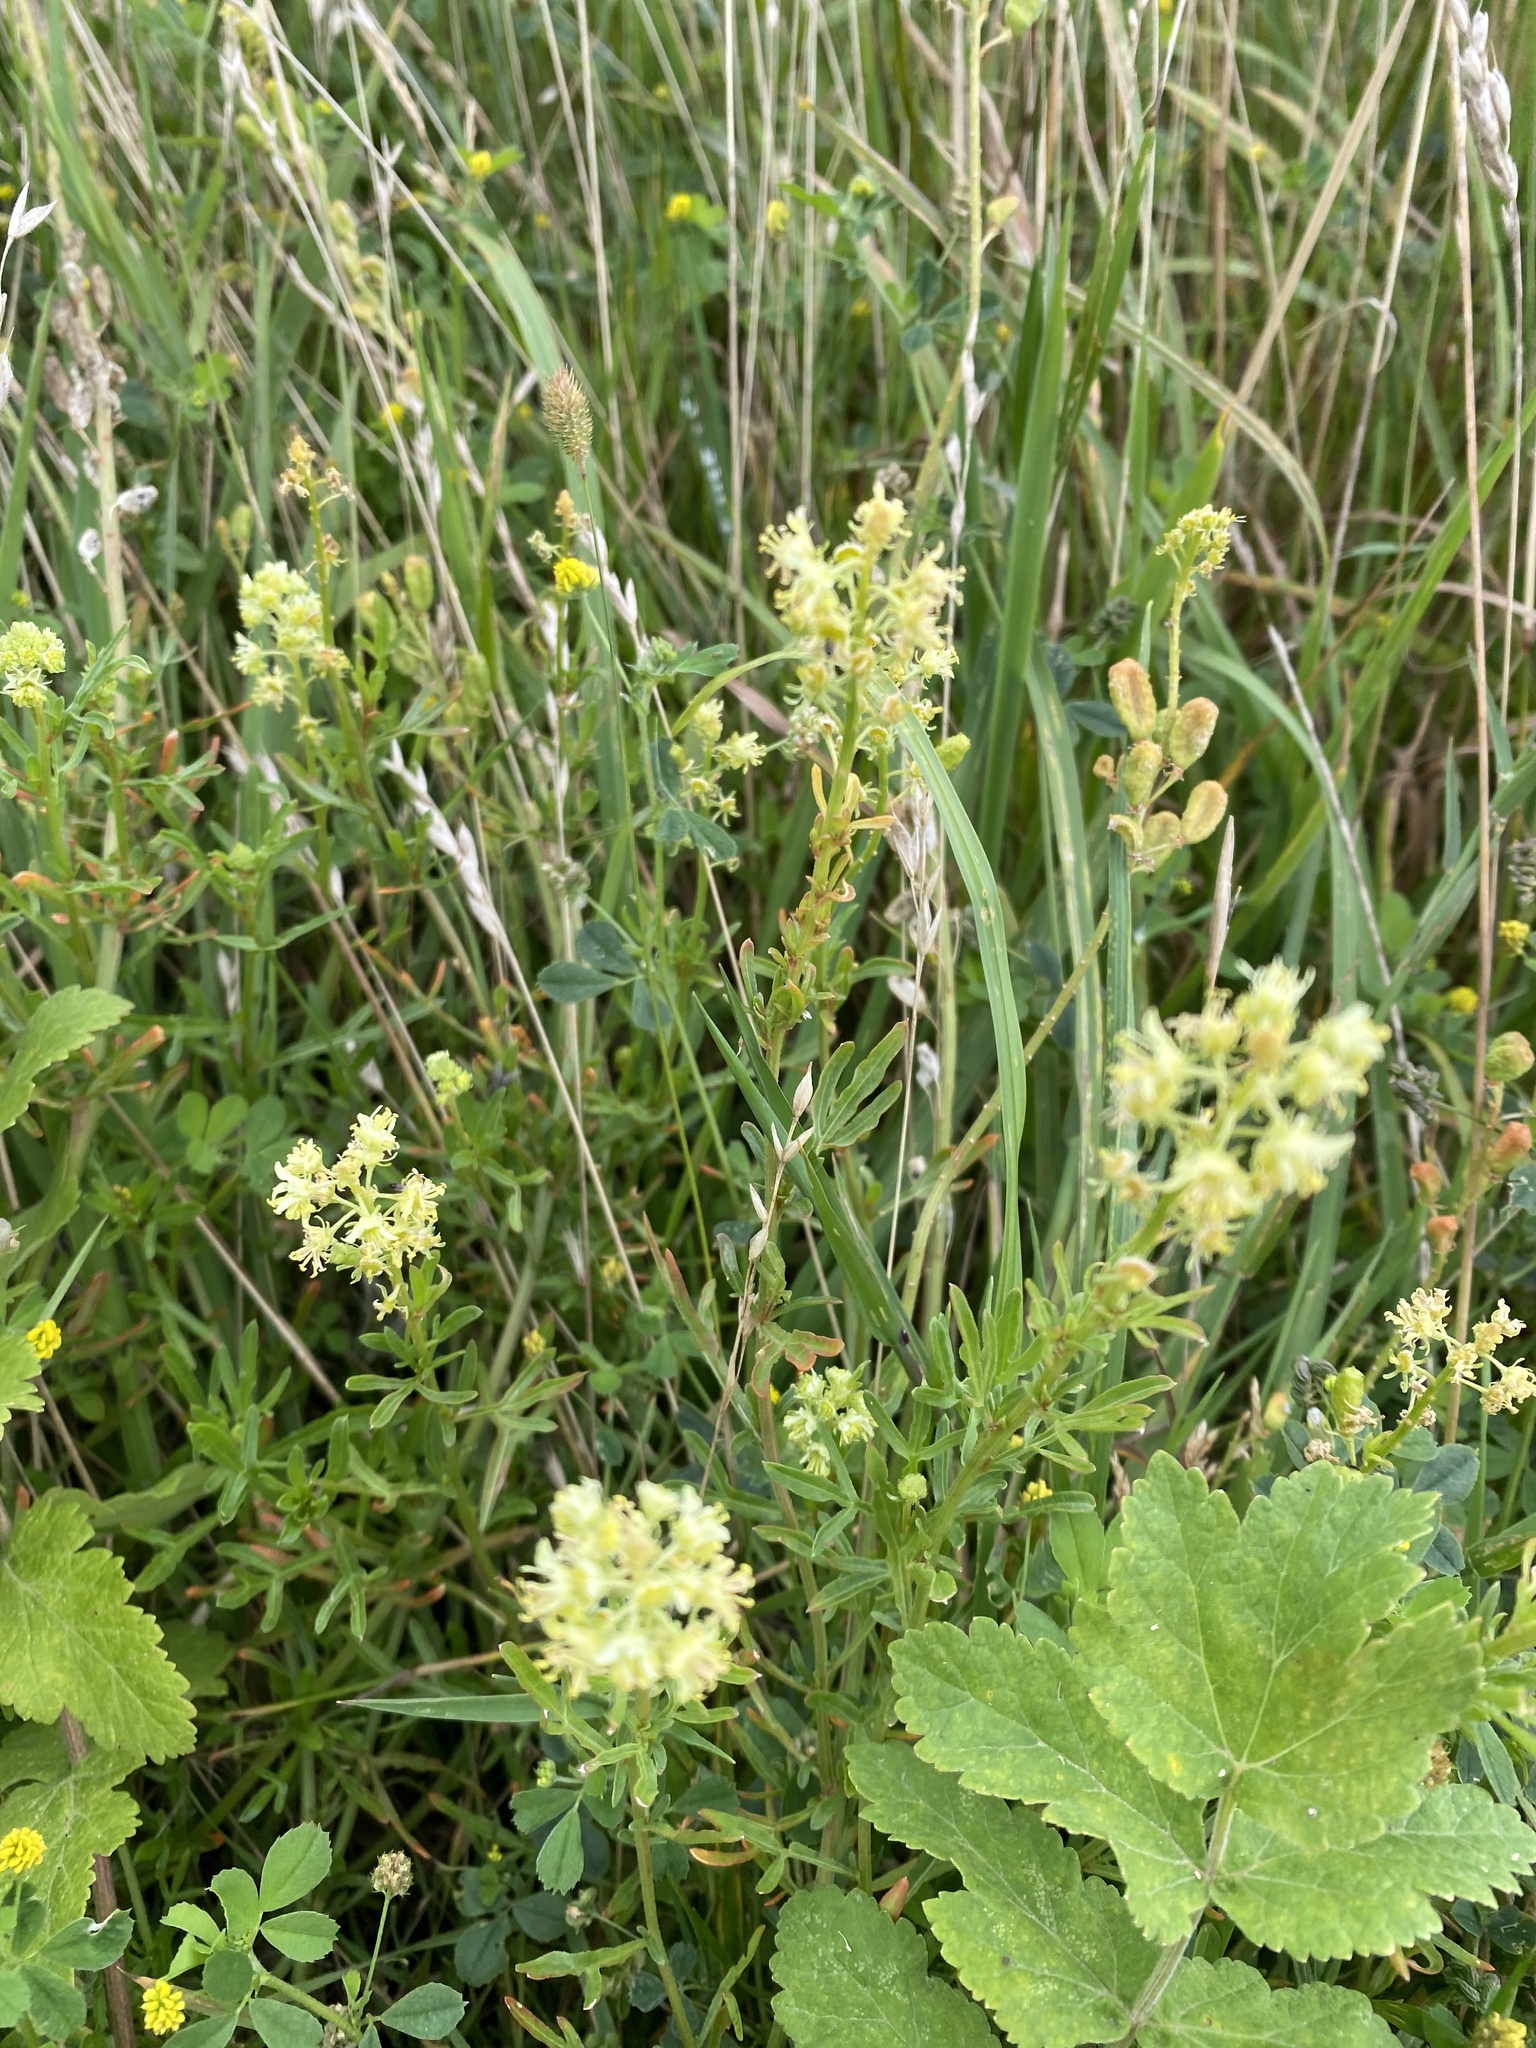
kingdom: Plantae
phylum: Tracheophyta
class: Magnoliopsida
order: Brassicales
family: Resedaceae
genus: Reseda
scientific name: Reseda lutea
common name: Wild mignonette
